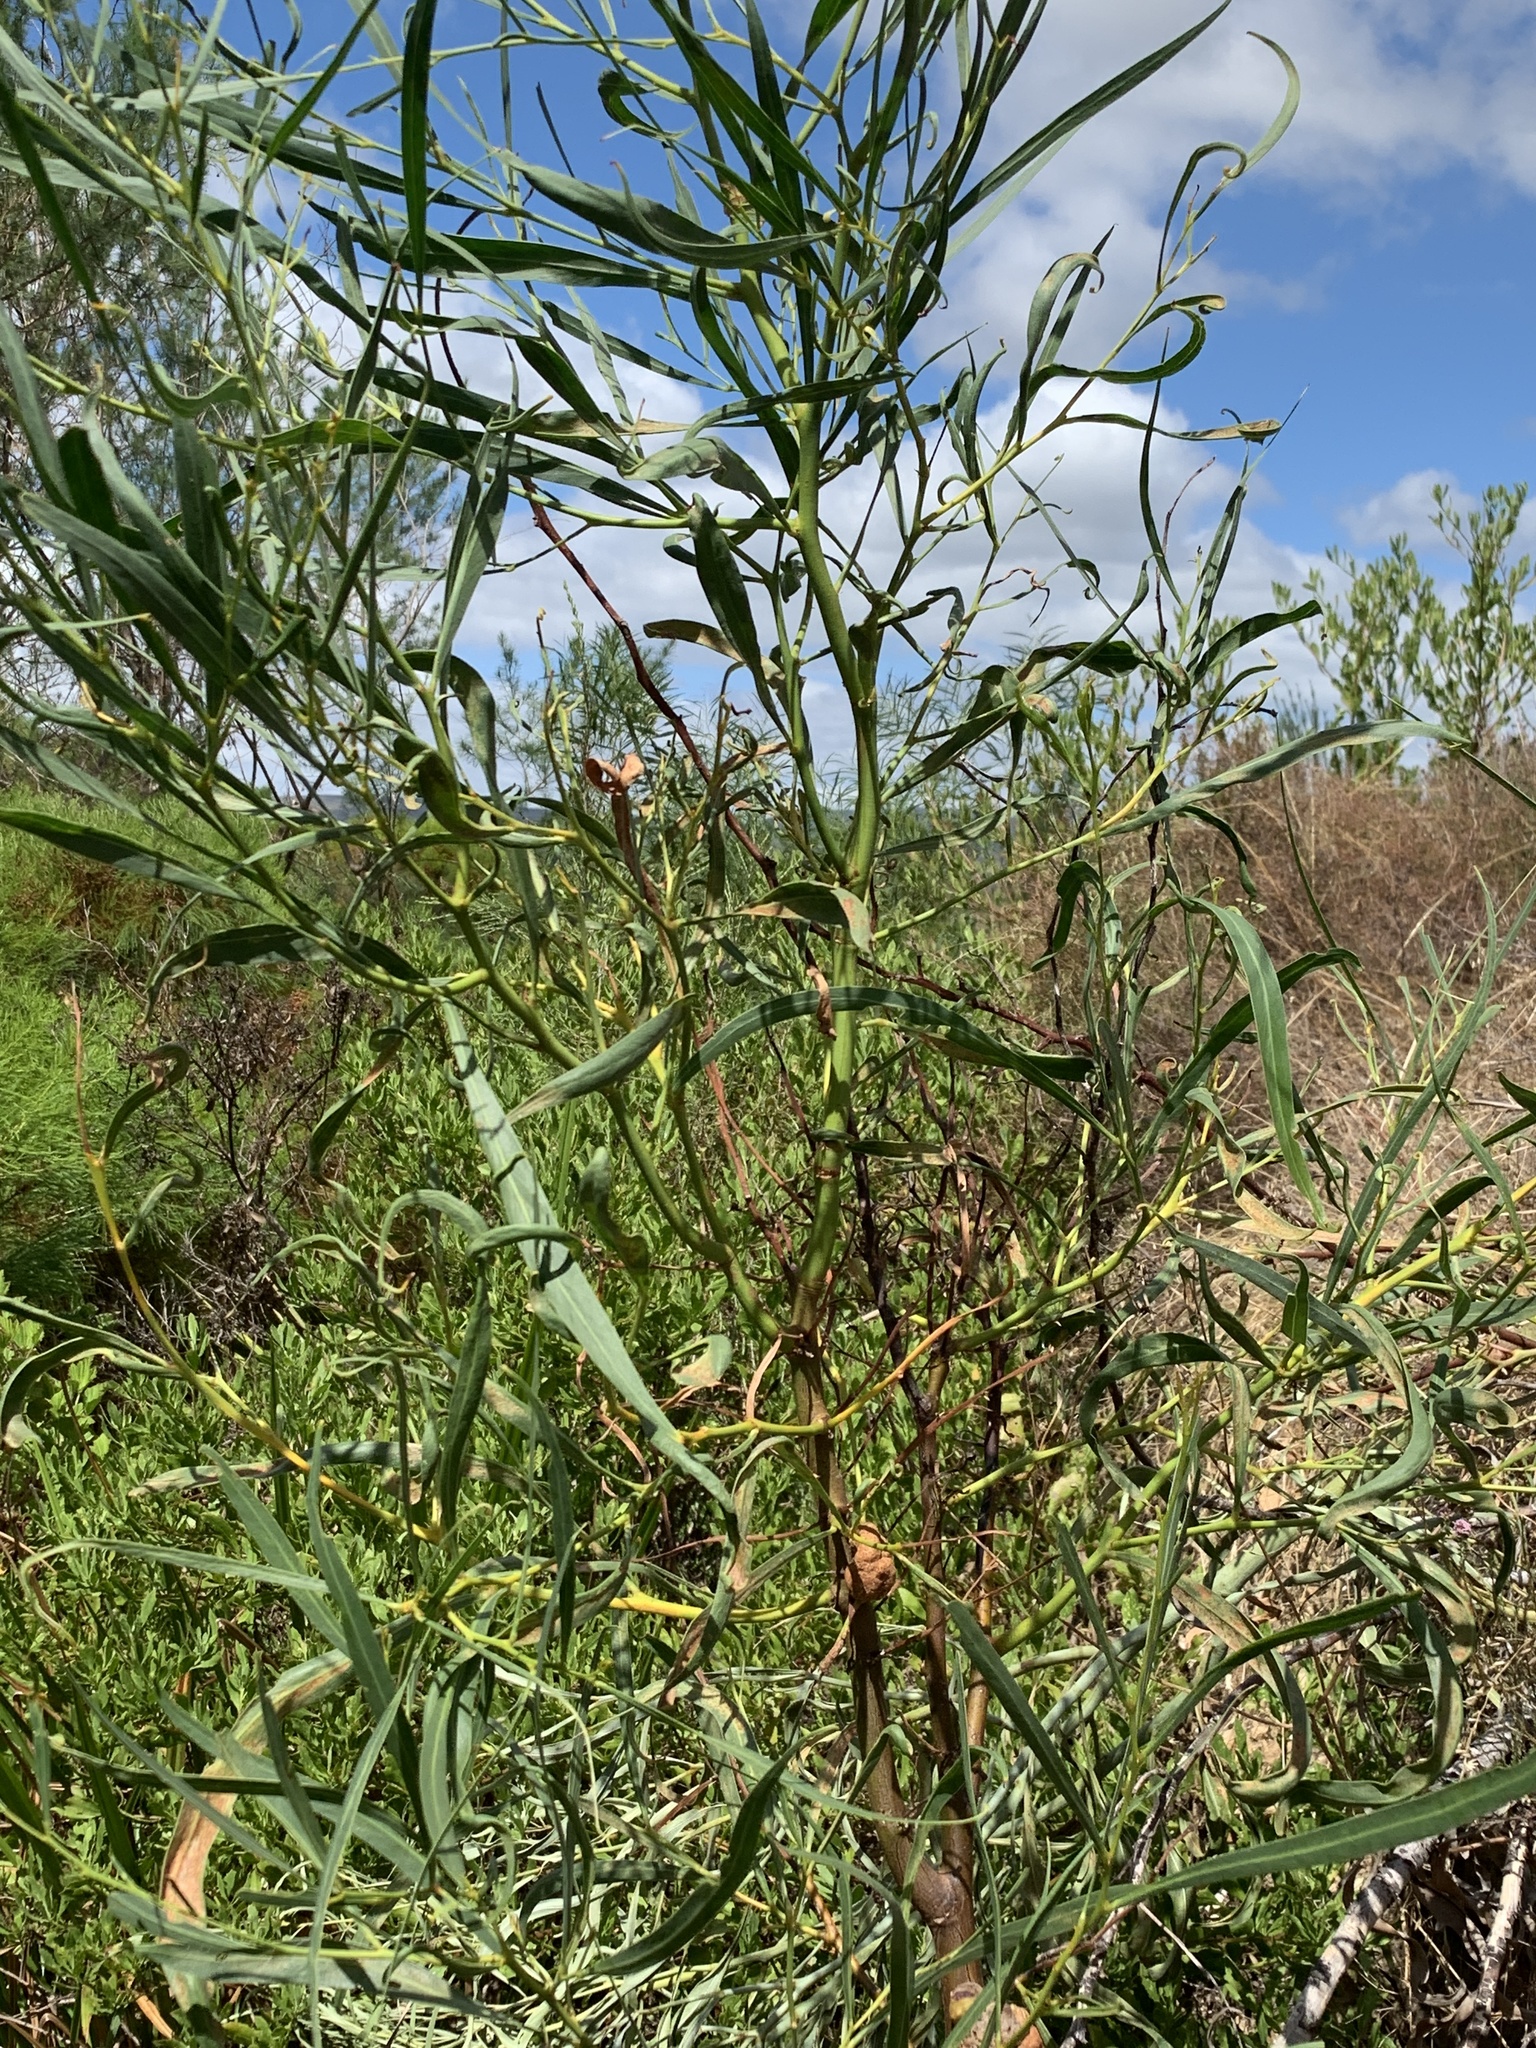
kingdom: Plantae
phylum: Tracheophyta
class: Magnoliopsida
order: Fabales
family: Fabaceae
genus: Acacia
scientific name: Acacia saligna
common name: Orange wattle
